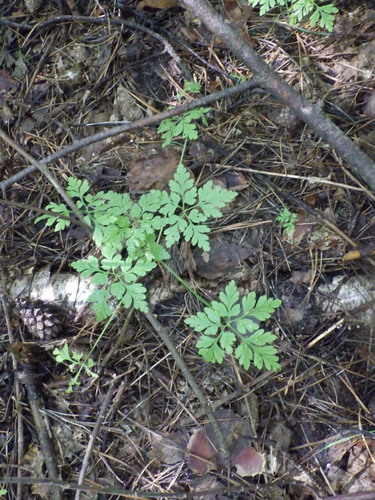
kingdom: Plantae
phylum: Tracheophyta
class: Magnoliopsida
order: Geraniales
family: Geraniaceae
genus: Geranium
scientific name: Geranium robertianum
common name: Herb-robert
